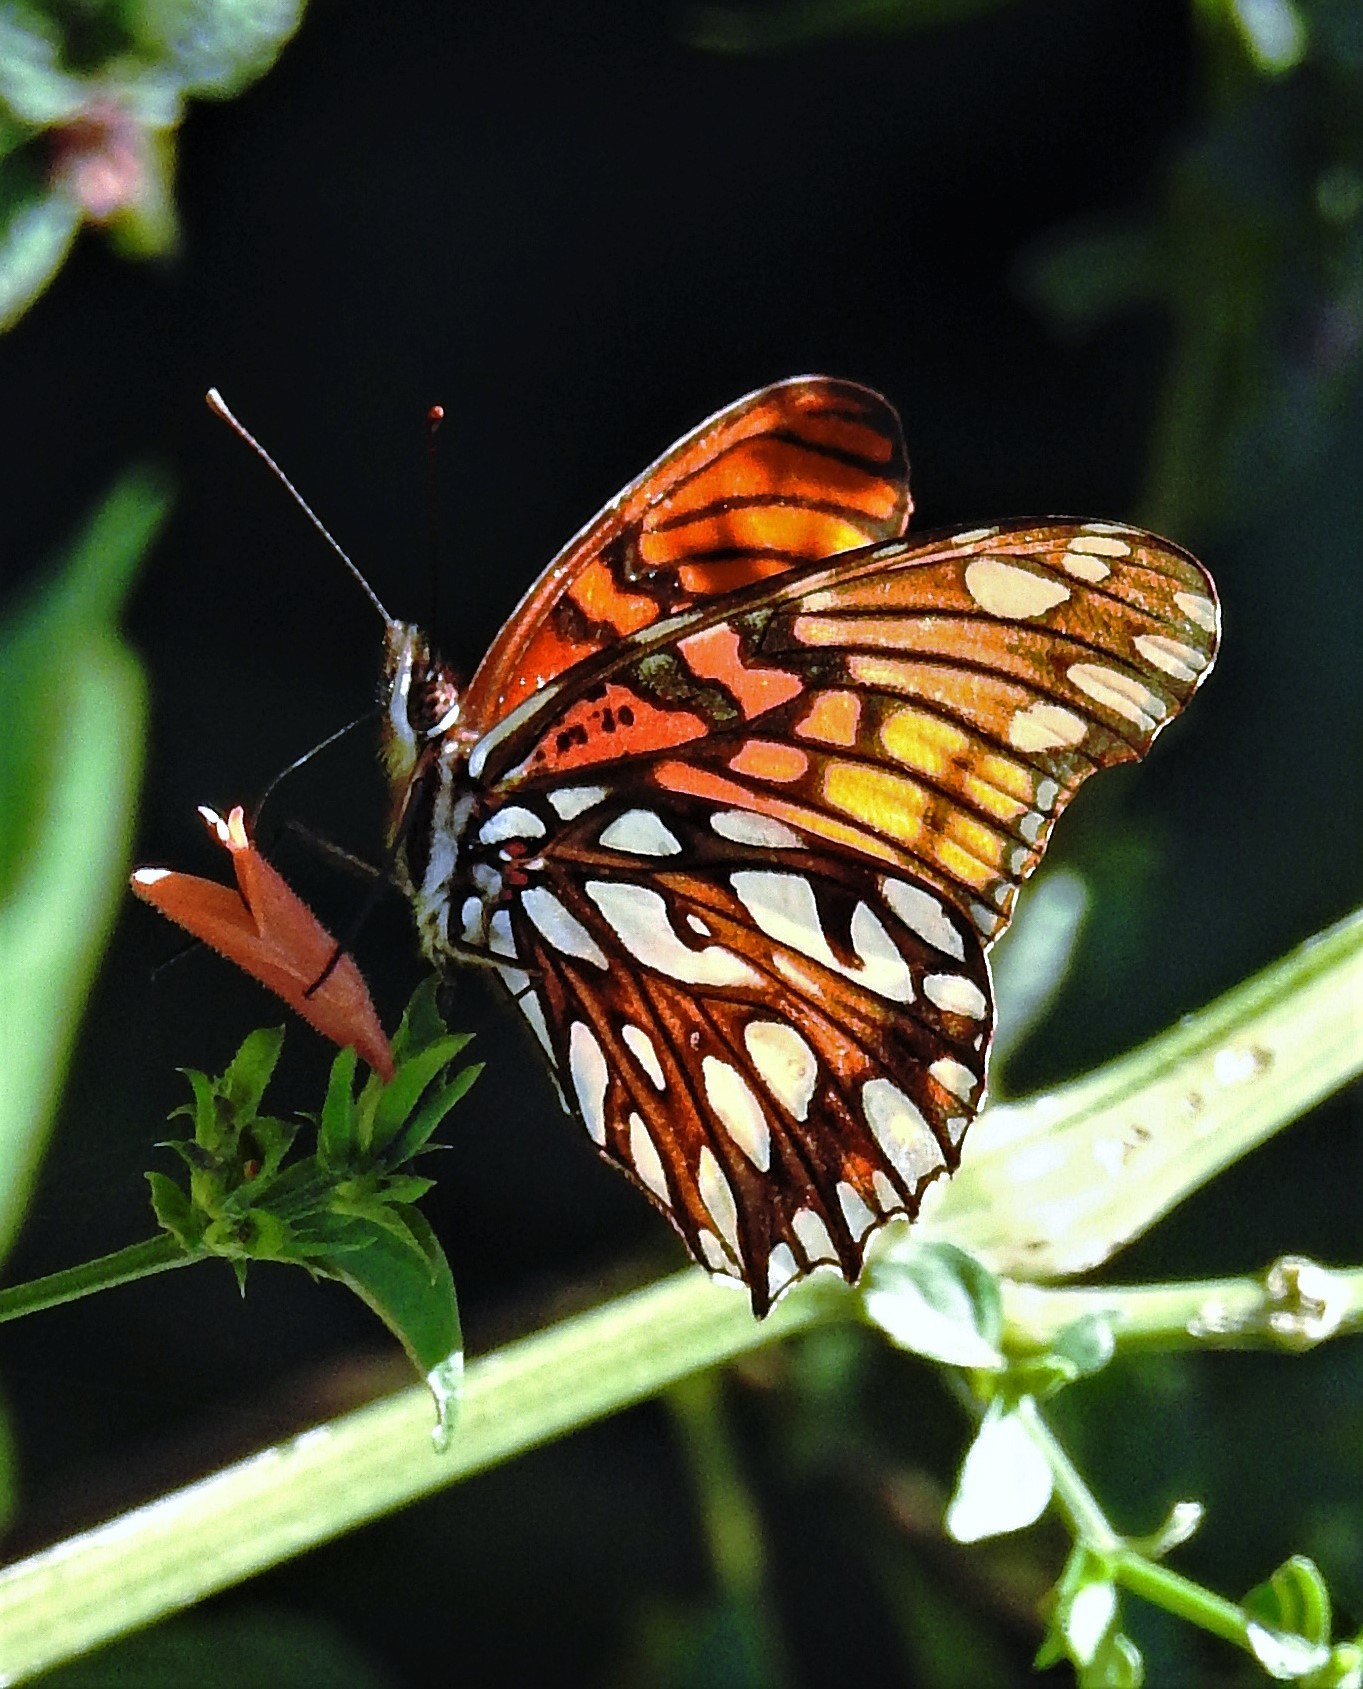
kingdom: Animalia
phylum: Arthropoda
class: Insecta
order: Lepidoptera
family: Nymphalidae
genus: Dione
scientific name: Dione moneta
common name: Mexican silverspot
